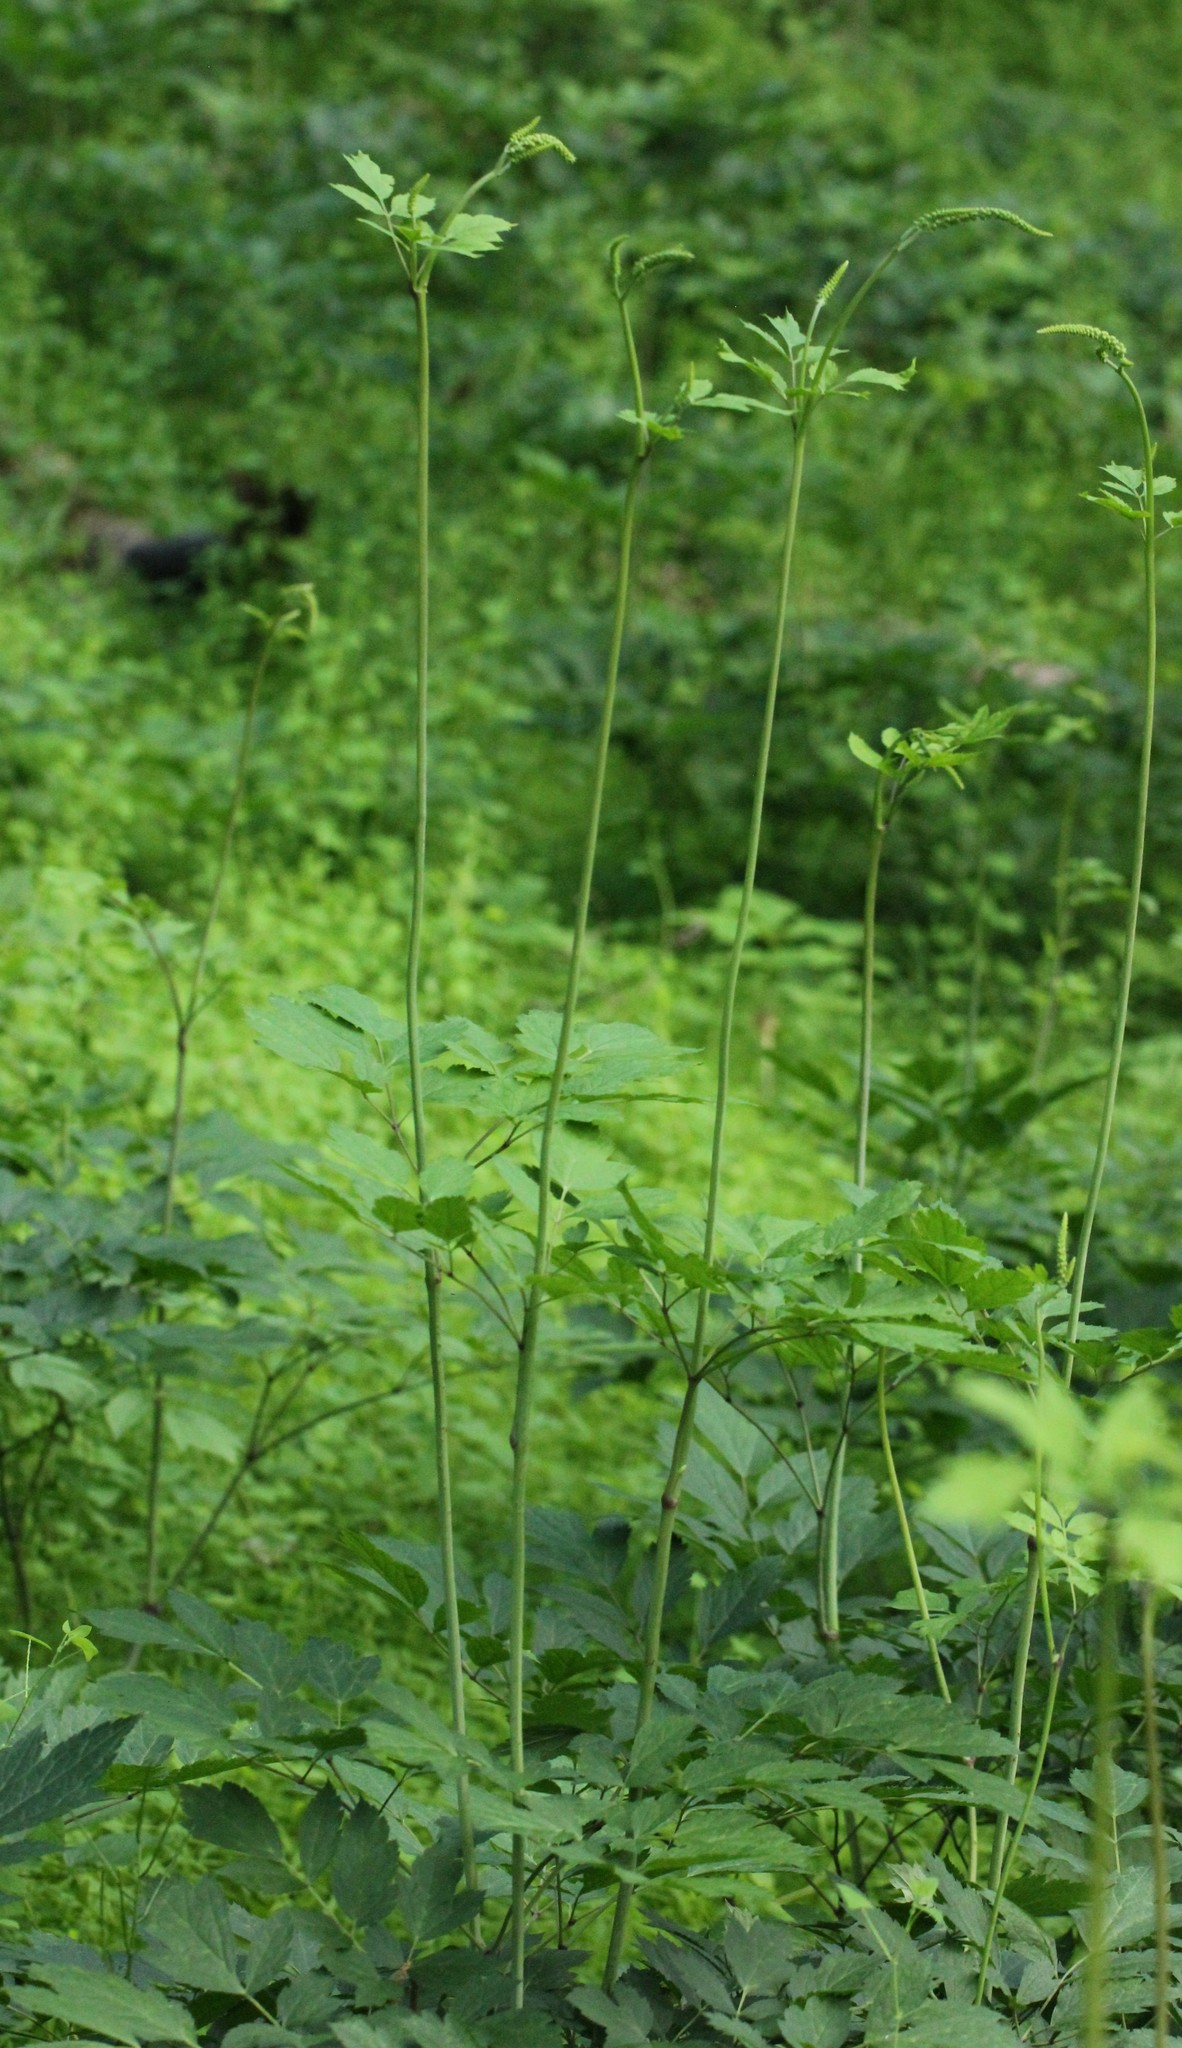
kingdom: Plantae
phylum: Tracheophyta
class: Magnoliopsida
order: Ranunculales
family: Ranunculaceae
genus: Actaea
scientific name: Actaea racemosa
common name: Black cohosh
